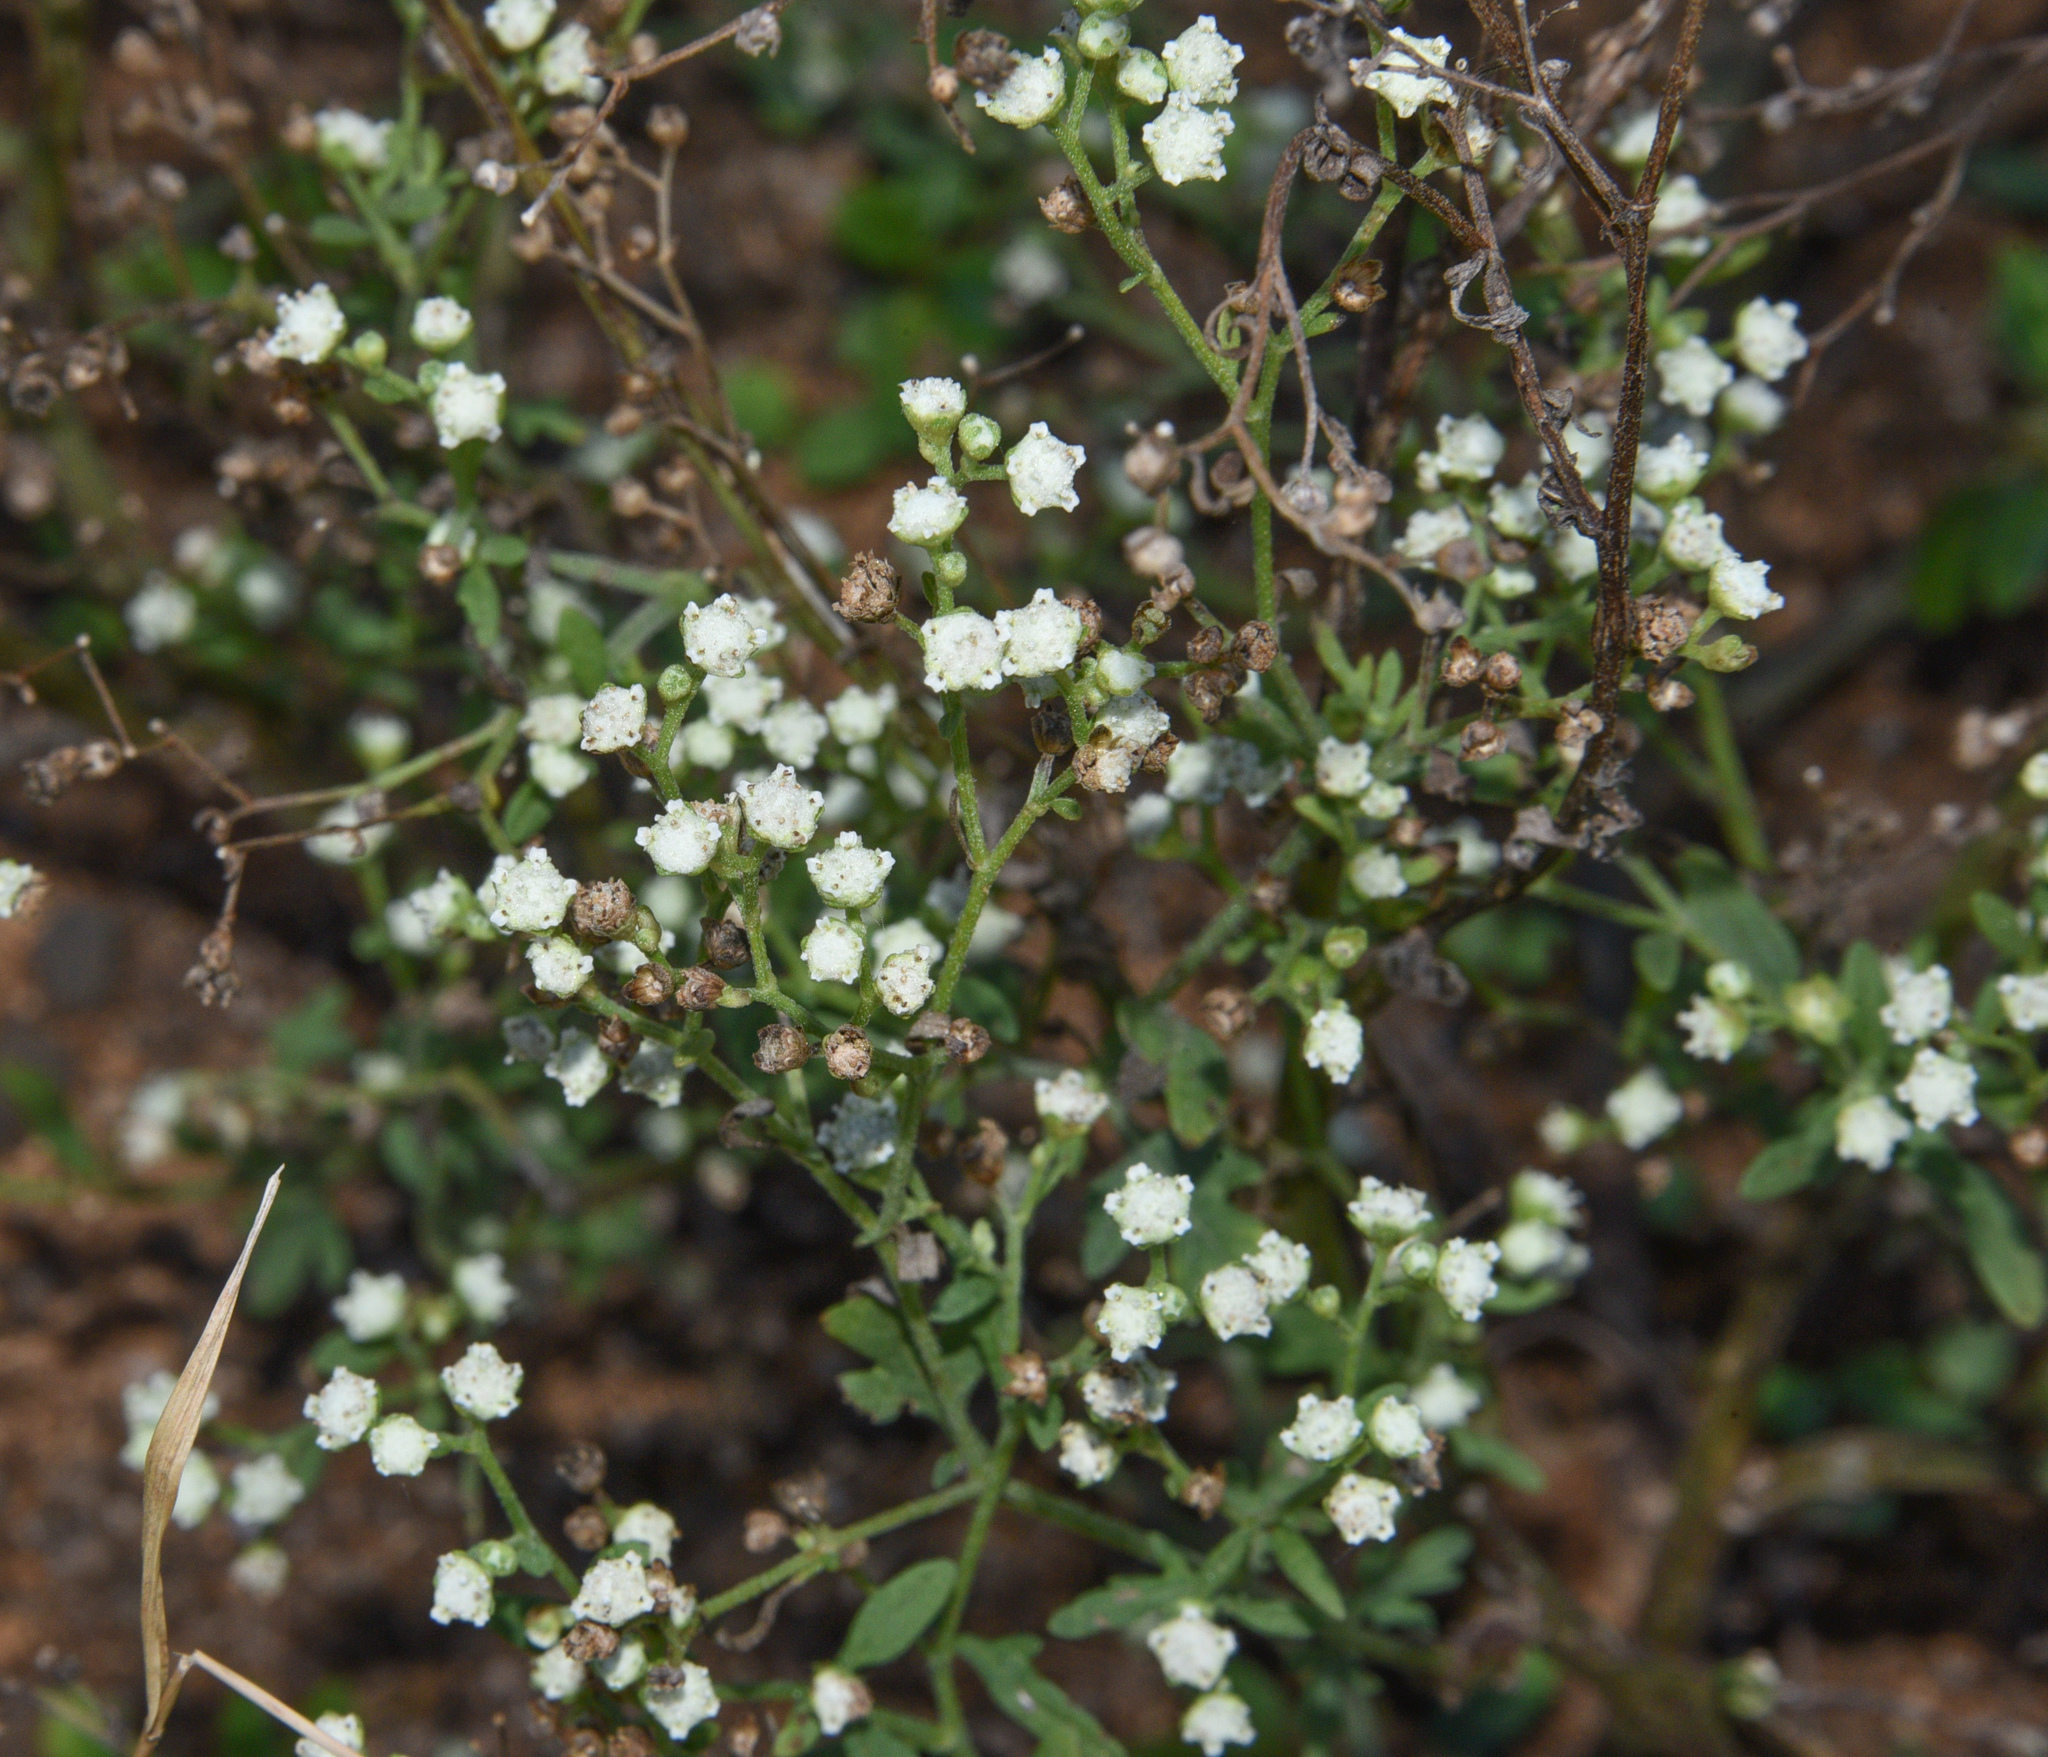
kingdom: Plantae
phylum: Tracheophyta
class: Magnoliopsida
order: Asterales
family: Asteraceae
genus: Parthenium
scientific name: Parthenium hysterophorus
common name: Santa maria feverfew
